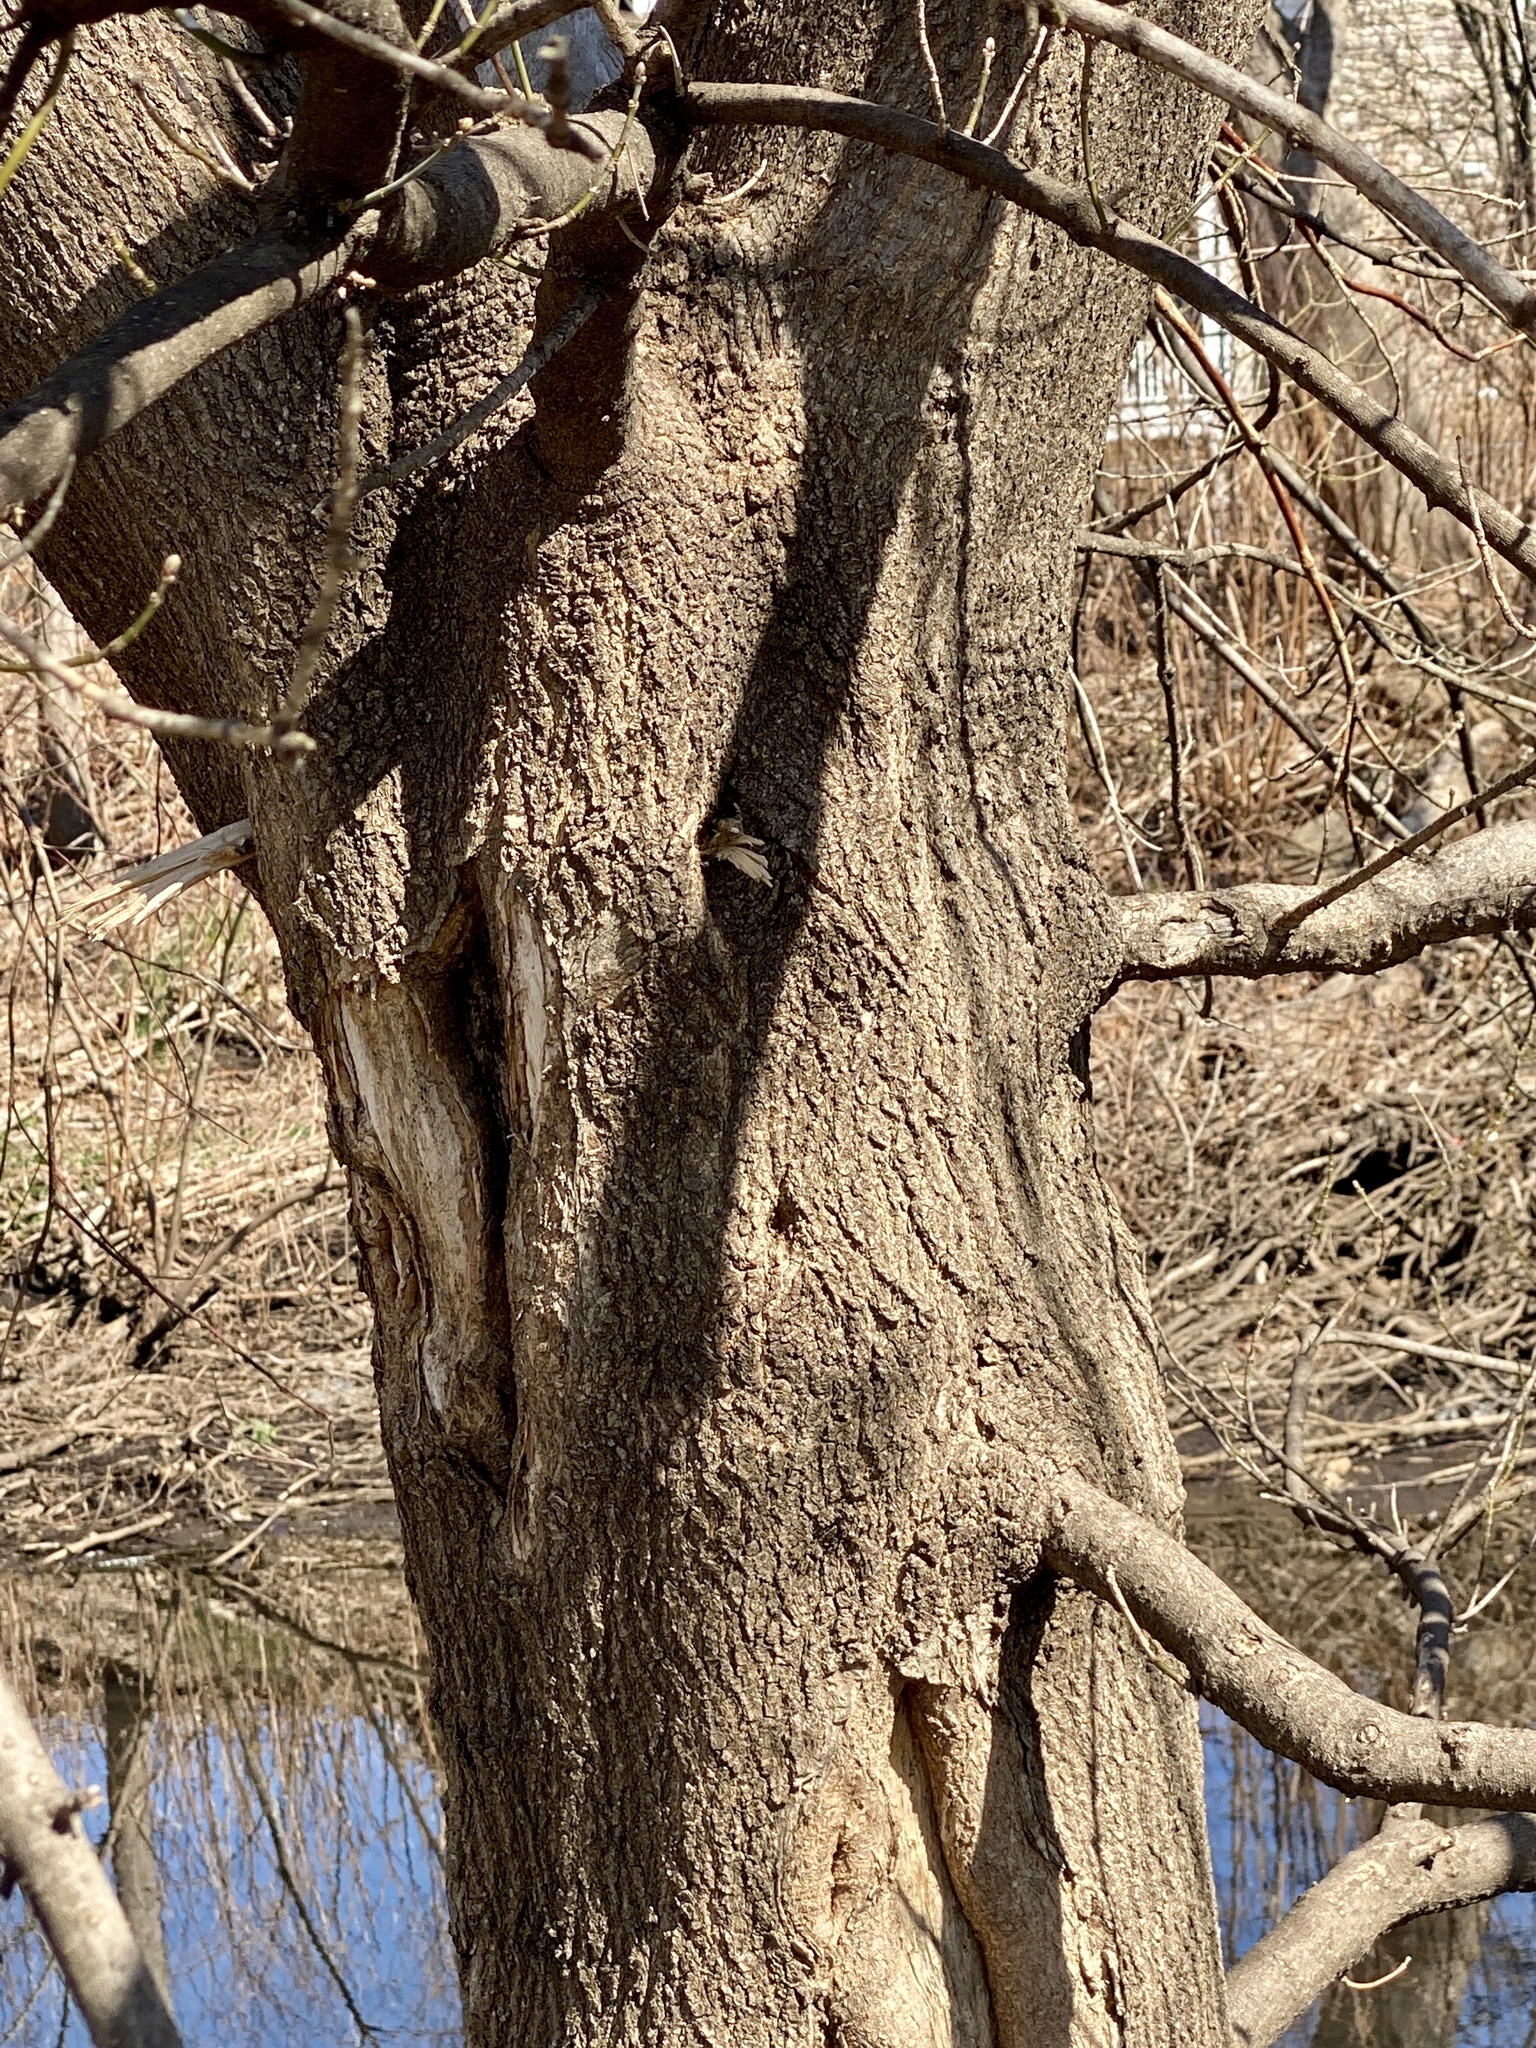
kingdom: Plantae
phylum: Tracheophyta
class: Magnoliopsida
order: Sapindales
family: Sapindaceae
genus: Acer
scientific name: Acer negundo
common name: Ashleaf maple
